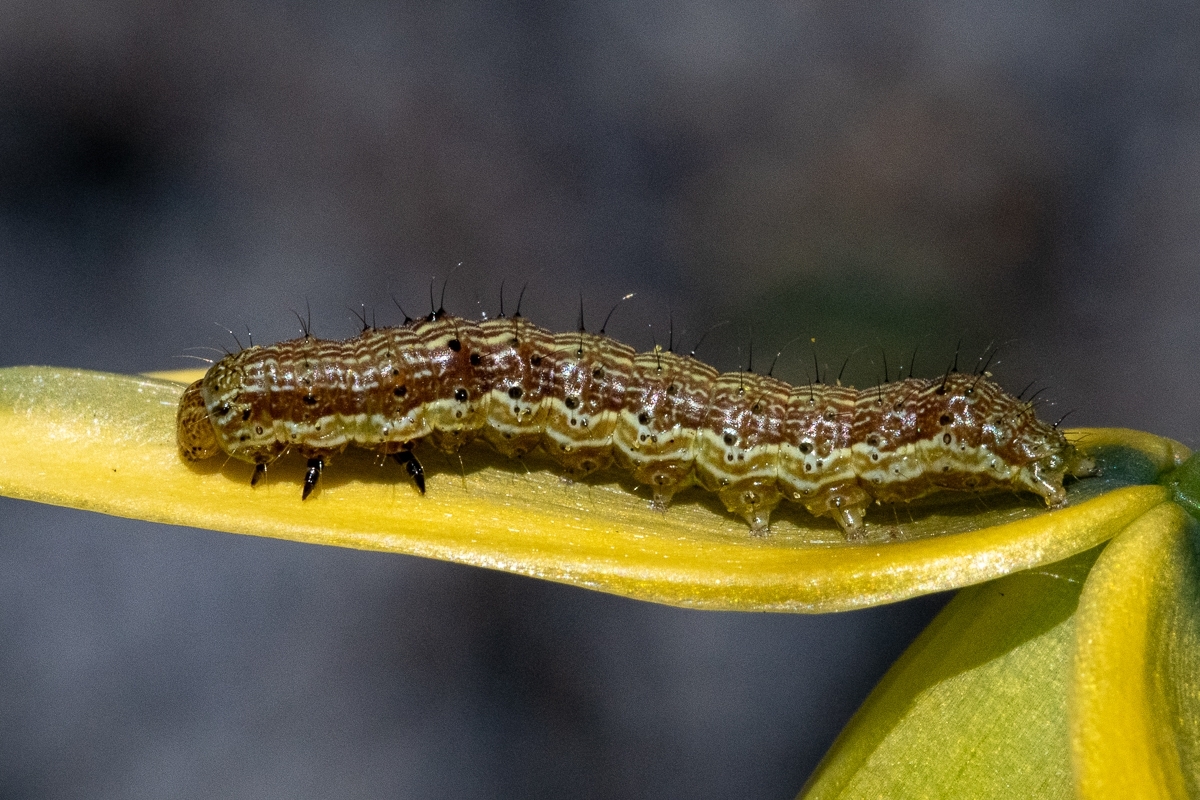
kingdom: Animalia
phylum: Arthropoda
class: Insecta
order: Lepidoptera
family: Noctuidae
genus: Helicoverpa
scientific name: Helicoverpa armigera
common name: Cotton bollworm
